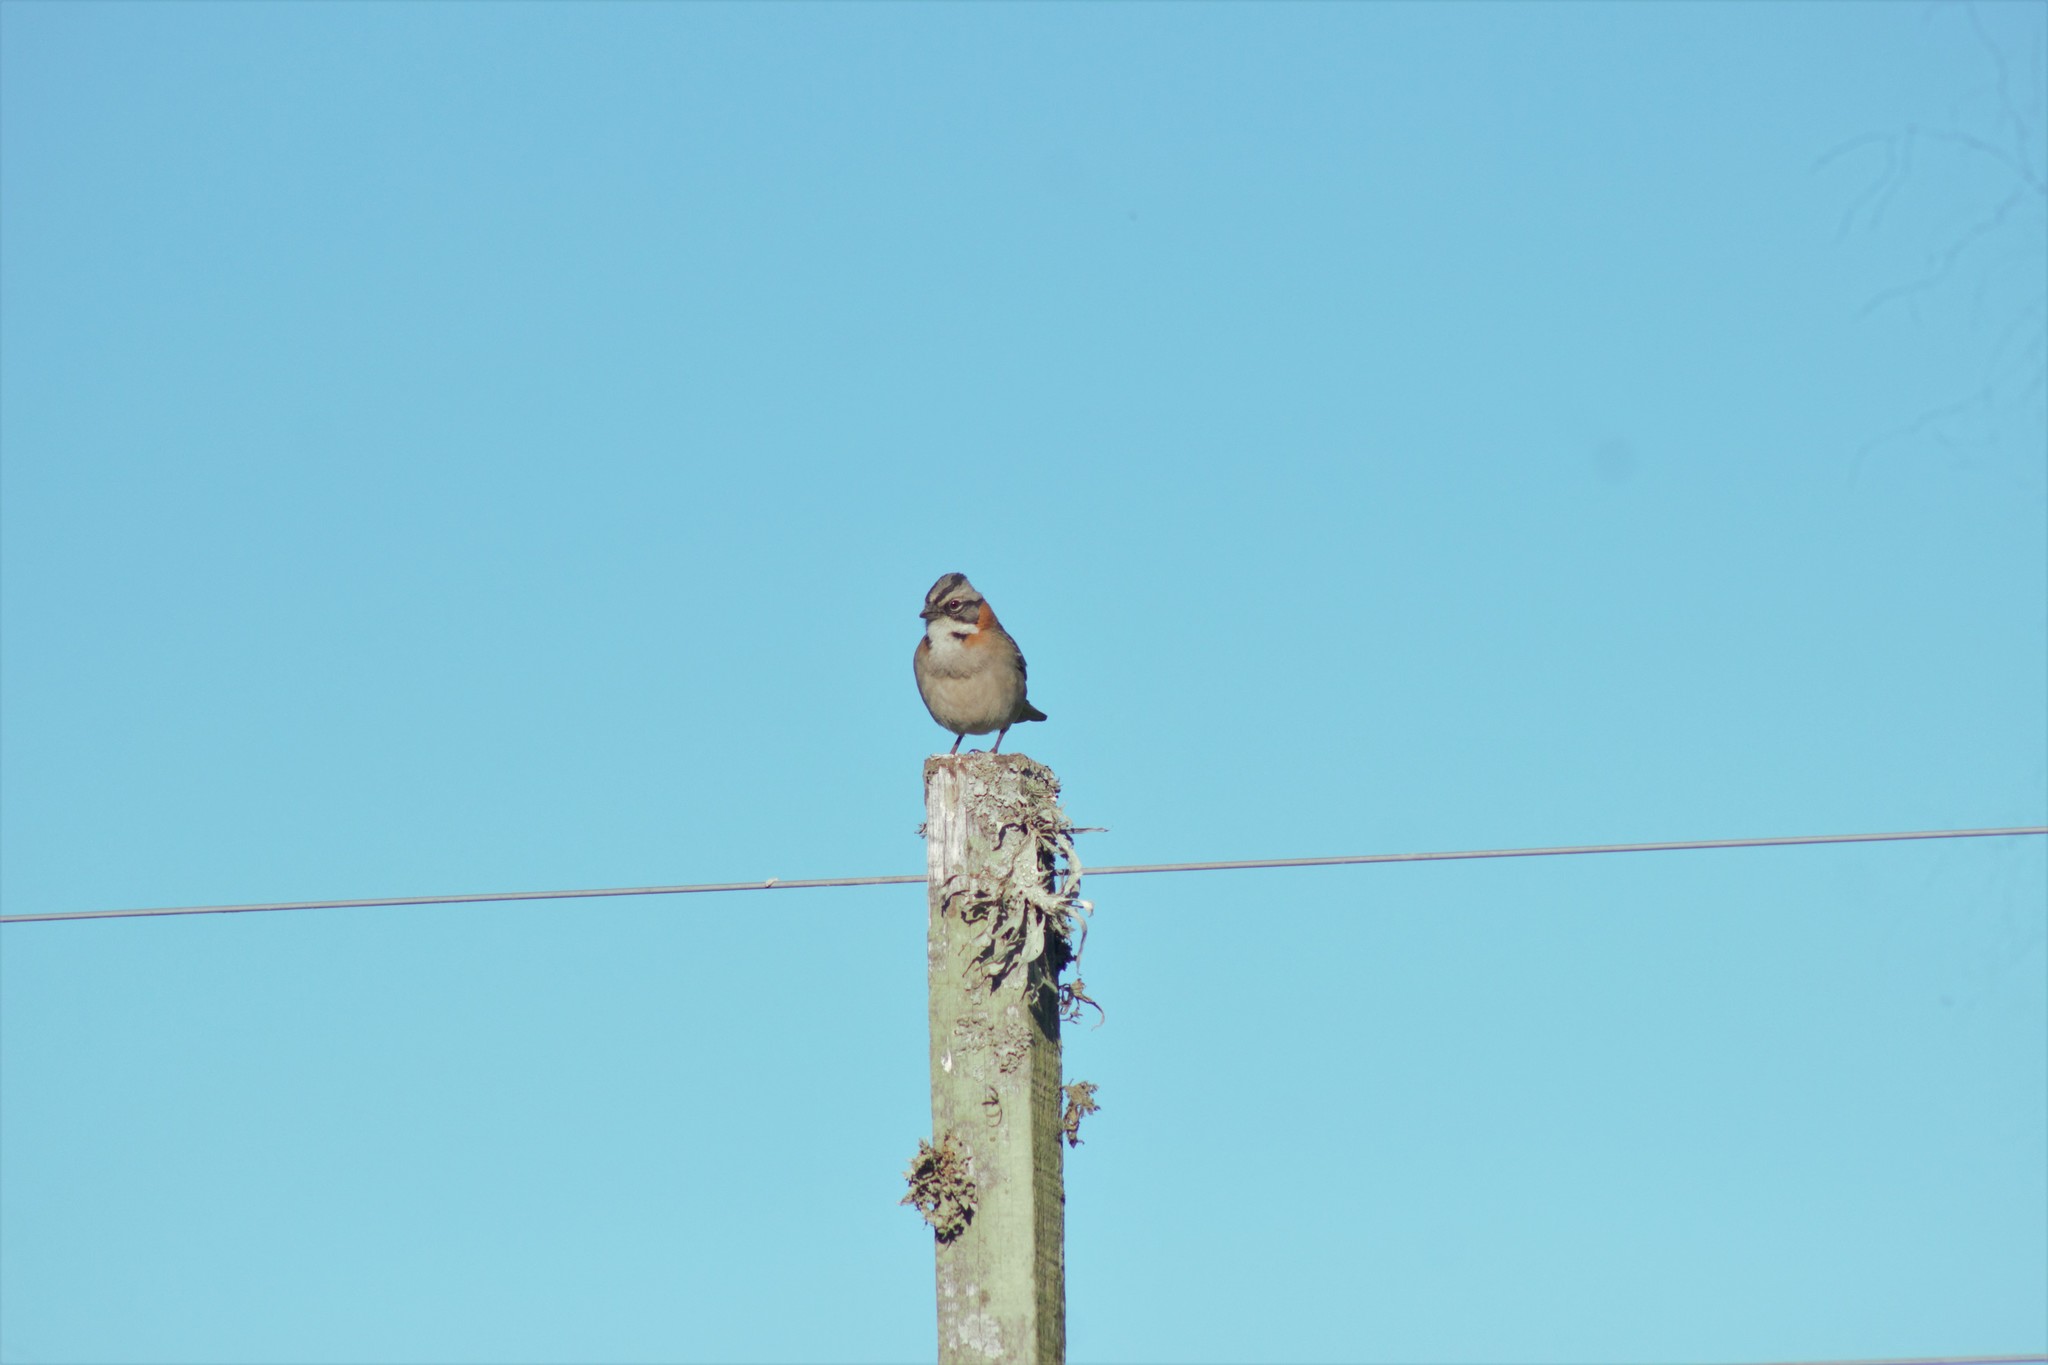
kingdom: Animalia
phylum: Chordata
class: Aves
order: Passeriformes
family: Passerellidae
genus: Zonotrichia
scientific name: Zonotrichia capensis
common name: Rufous-collared sparrow
